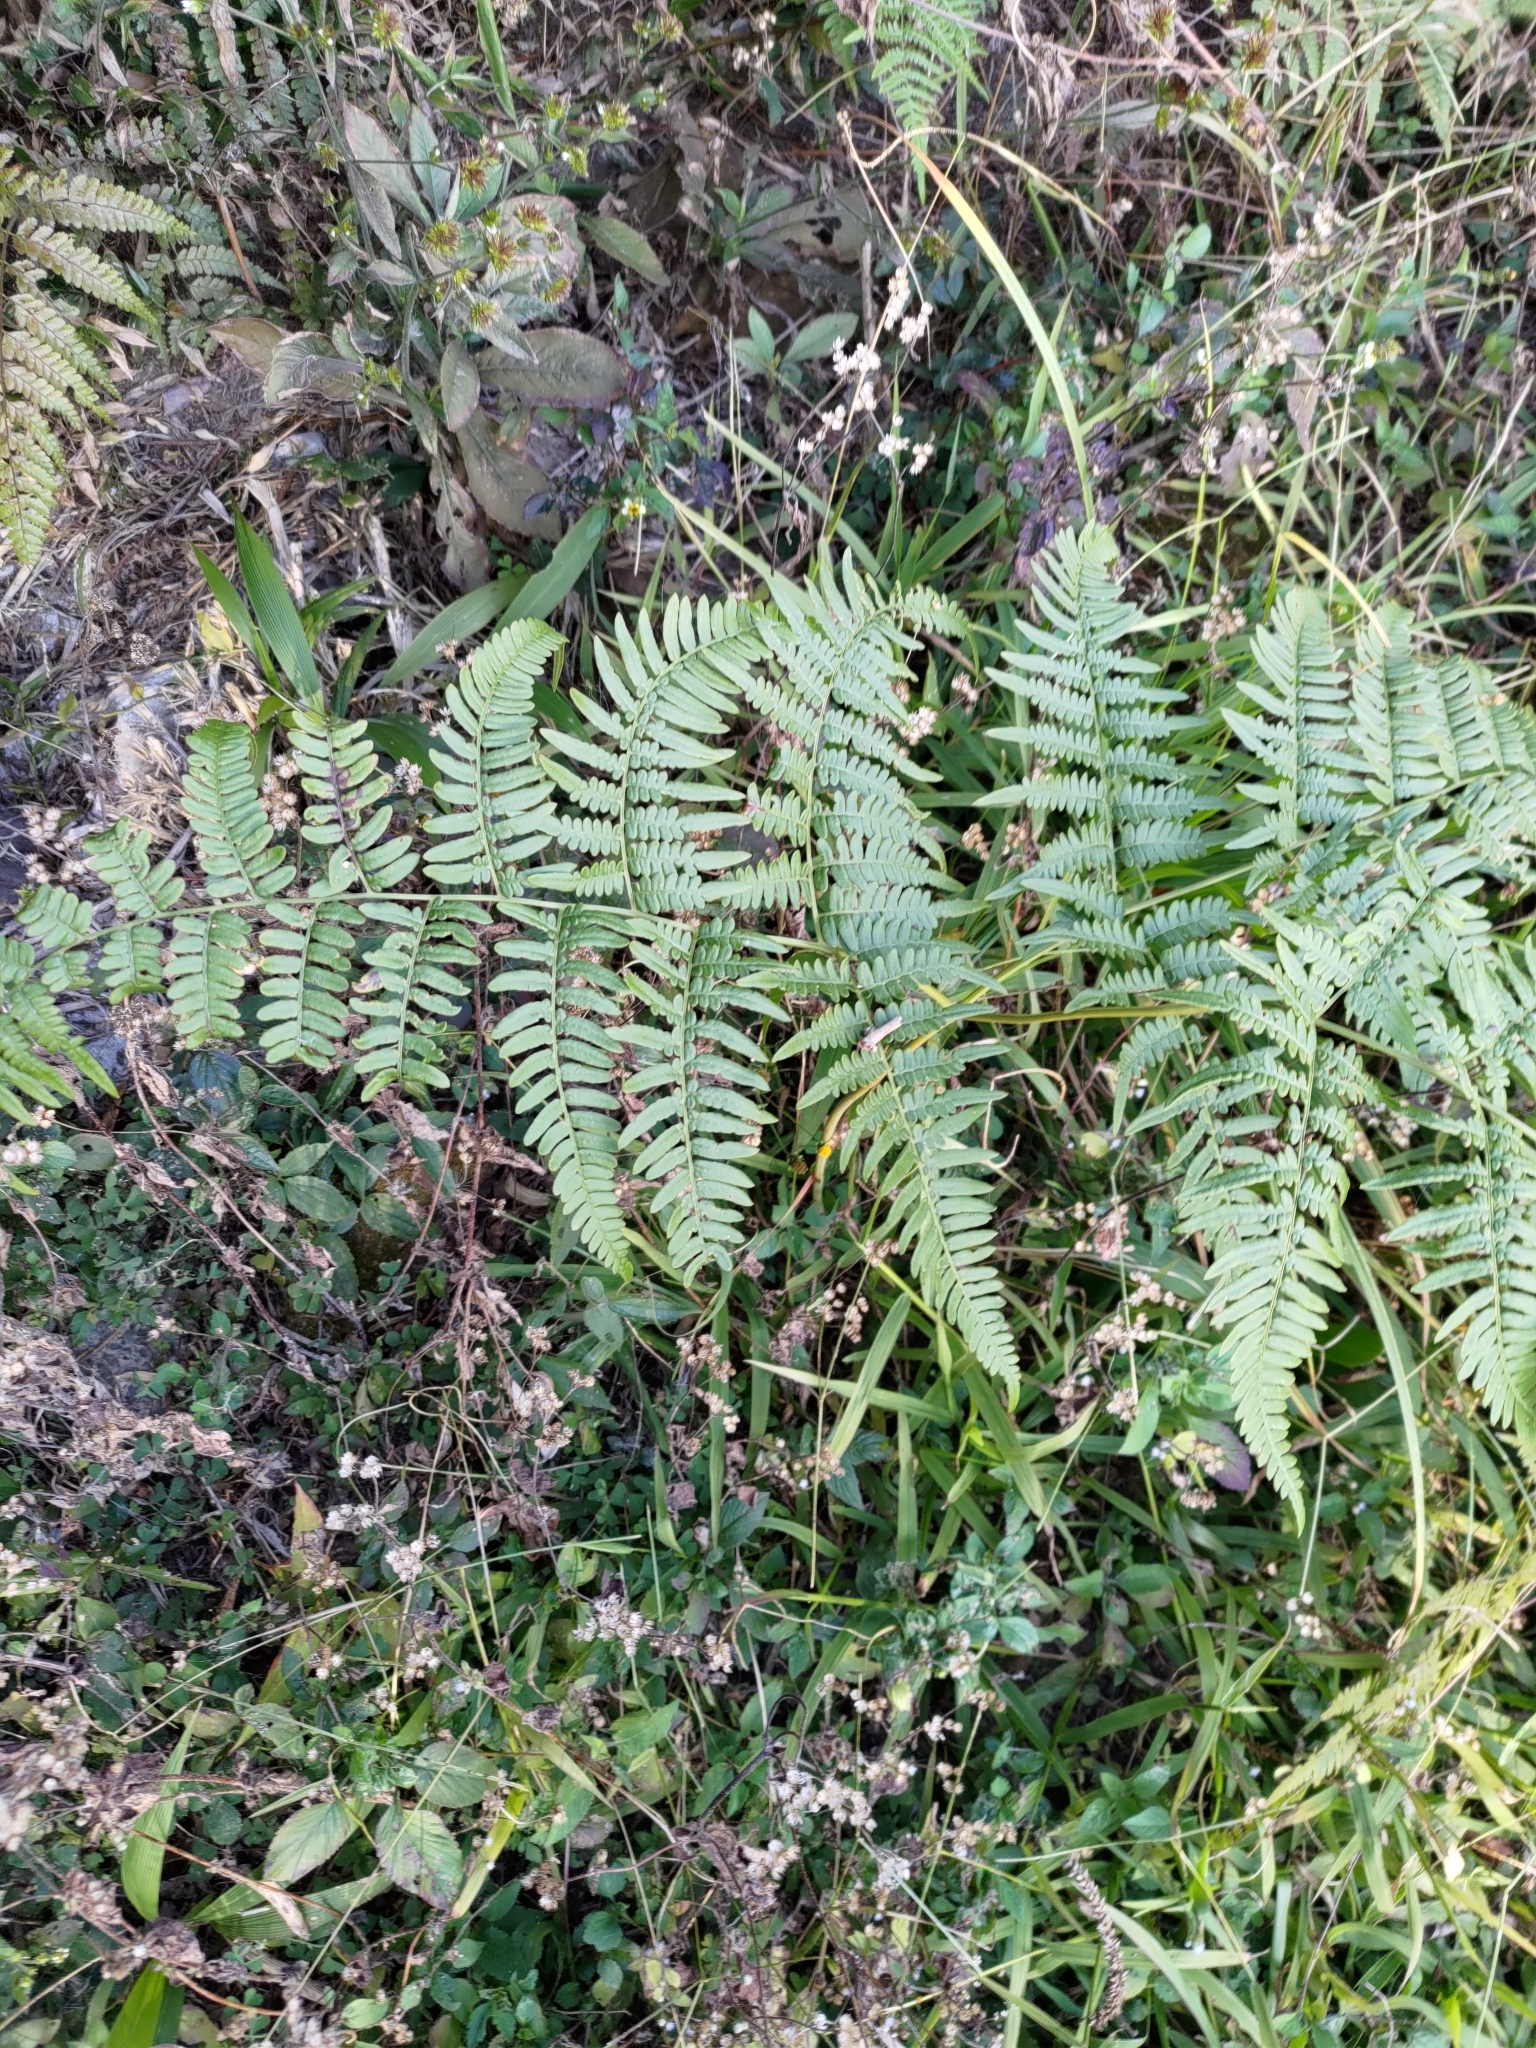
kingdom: Plantae
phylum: Tracheophyta
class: Polypodiopsida
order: Polypodiales
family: Dennstaedtiaceae
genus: Pteridium
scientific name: Pteridium aquilinum
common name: Bracken
